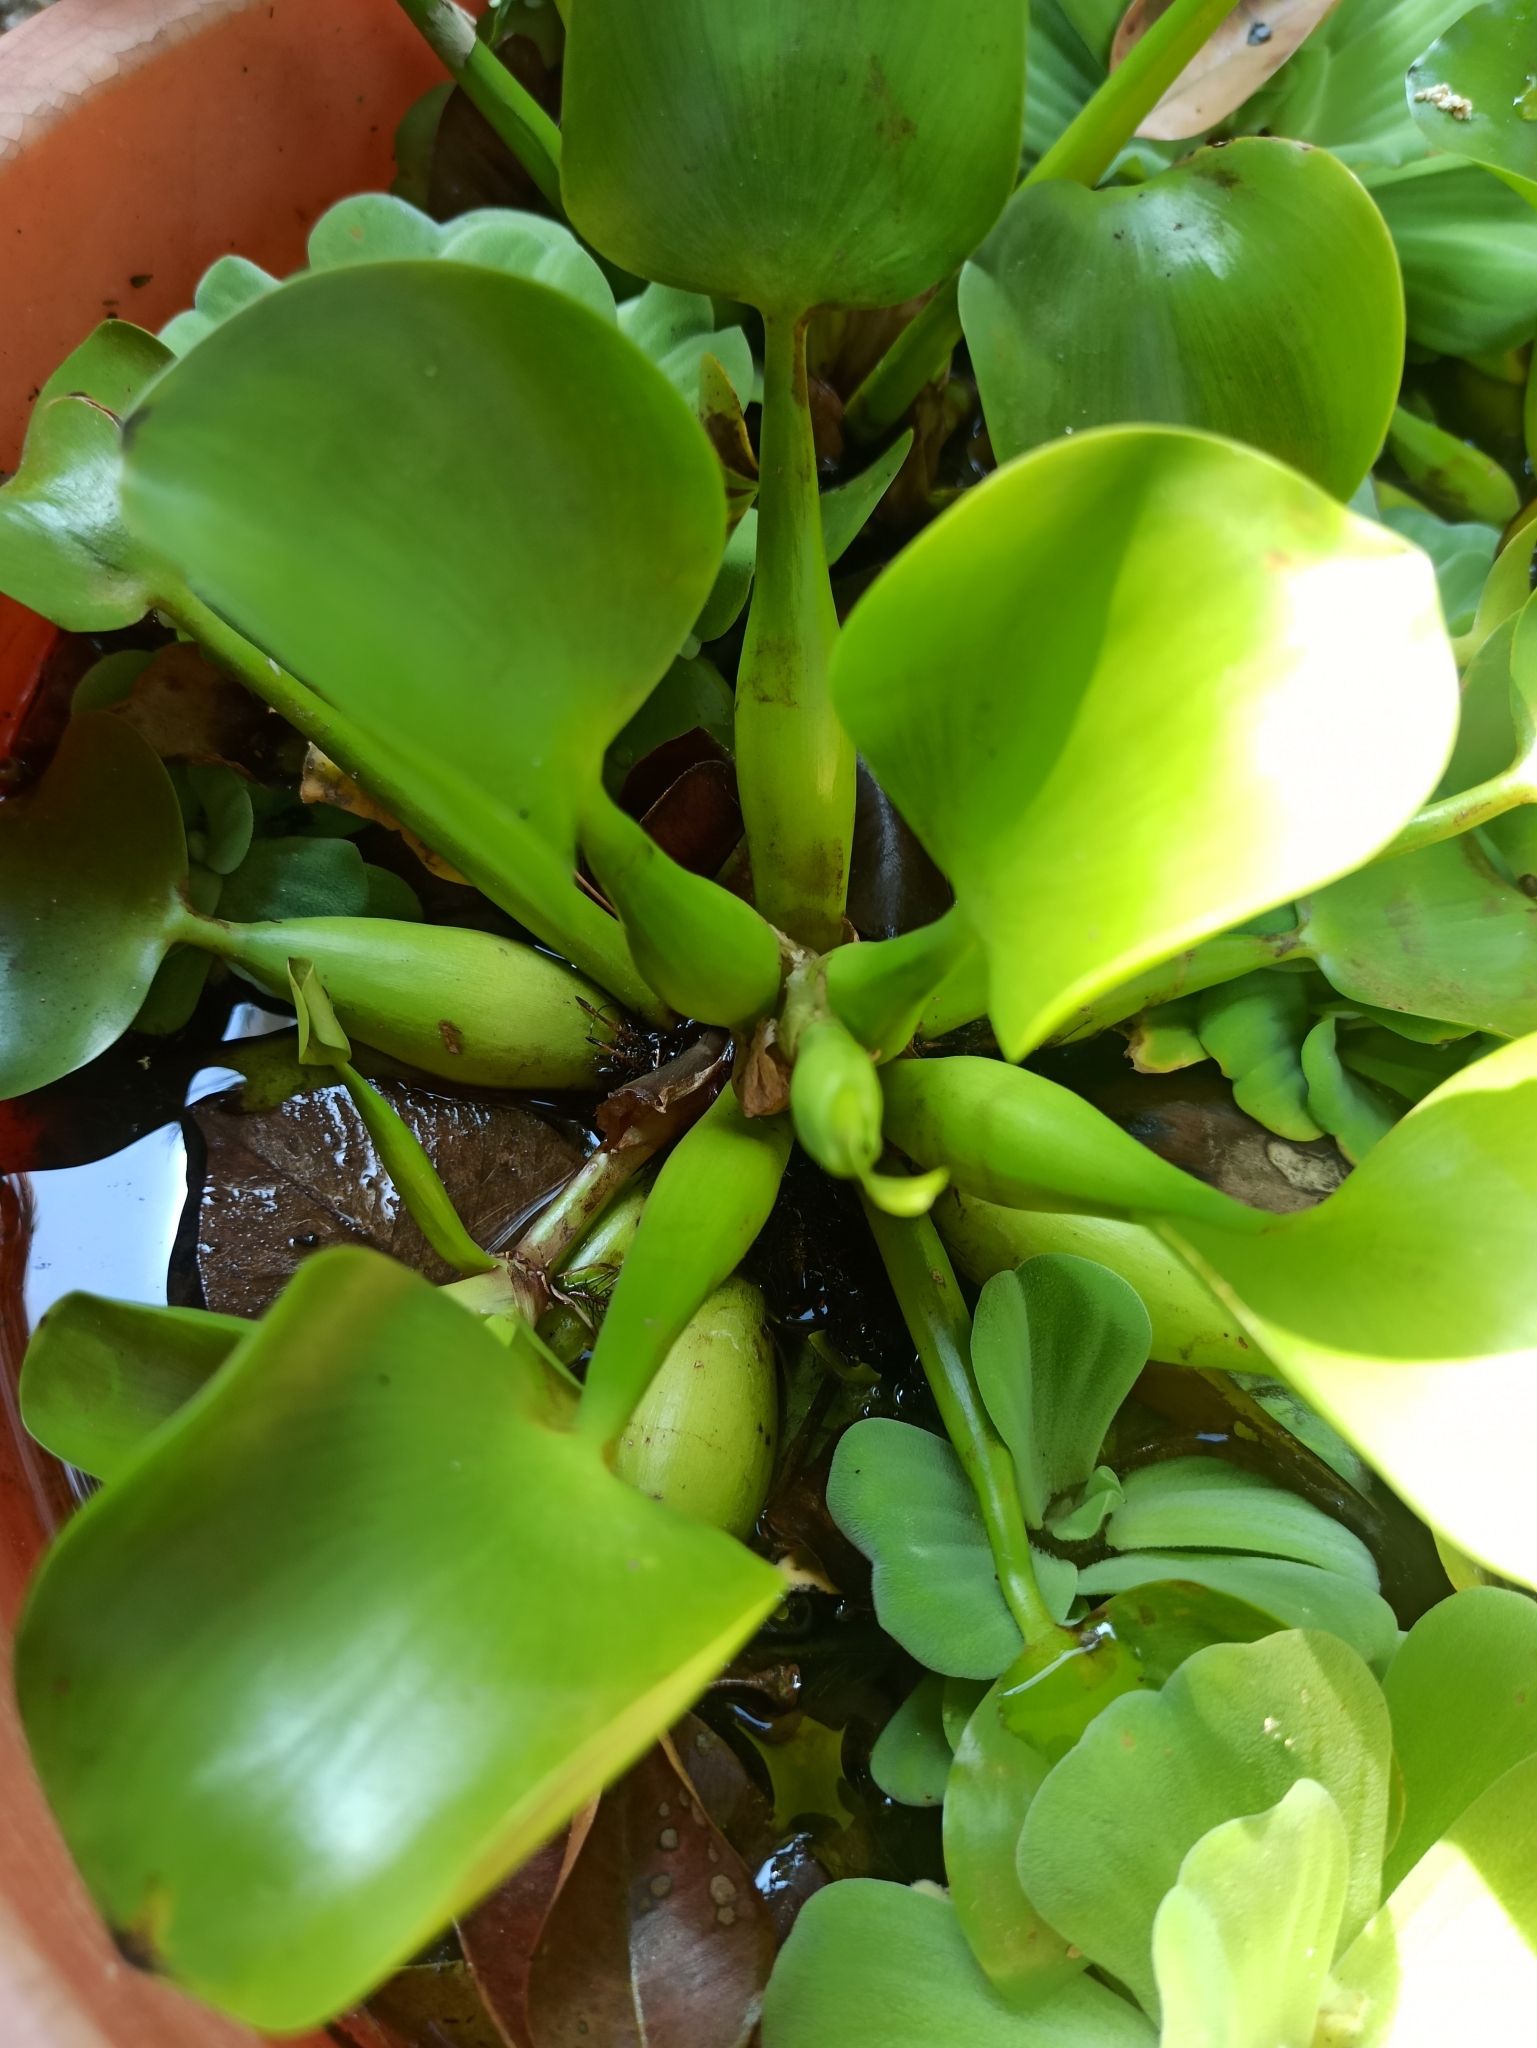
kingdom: Plantae
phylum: Tracheophyta
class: Liliopsida
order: Commelinales
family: Pontederiaceae
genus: Pontederia
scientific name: Pontederia crassipes
